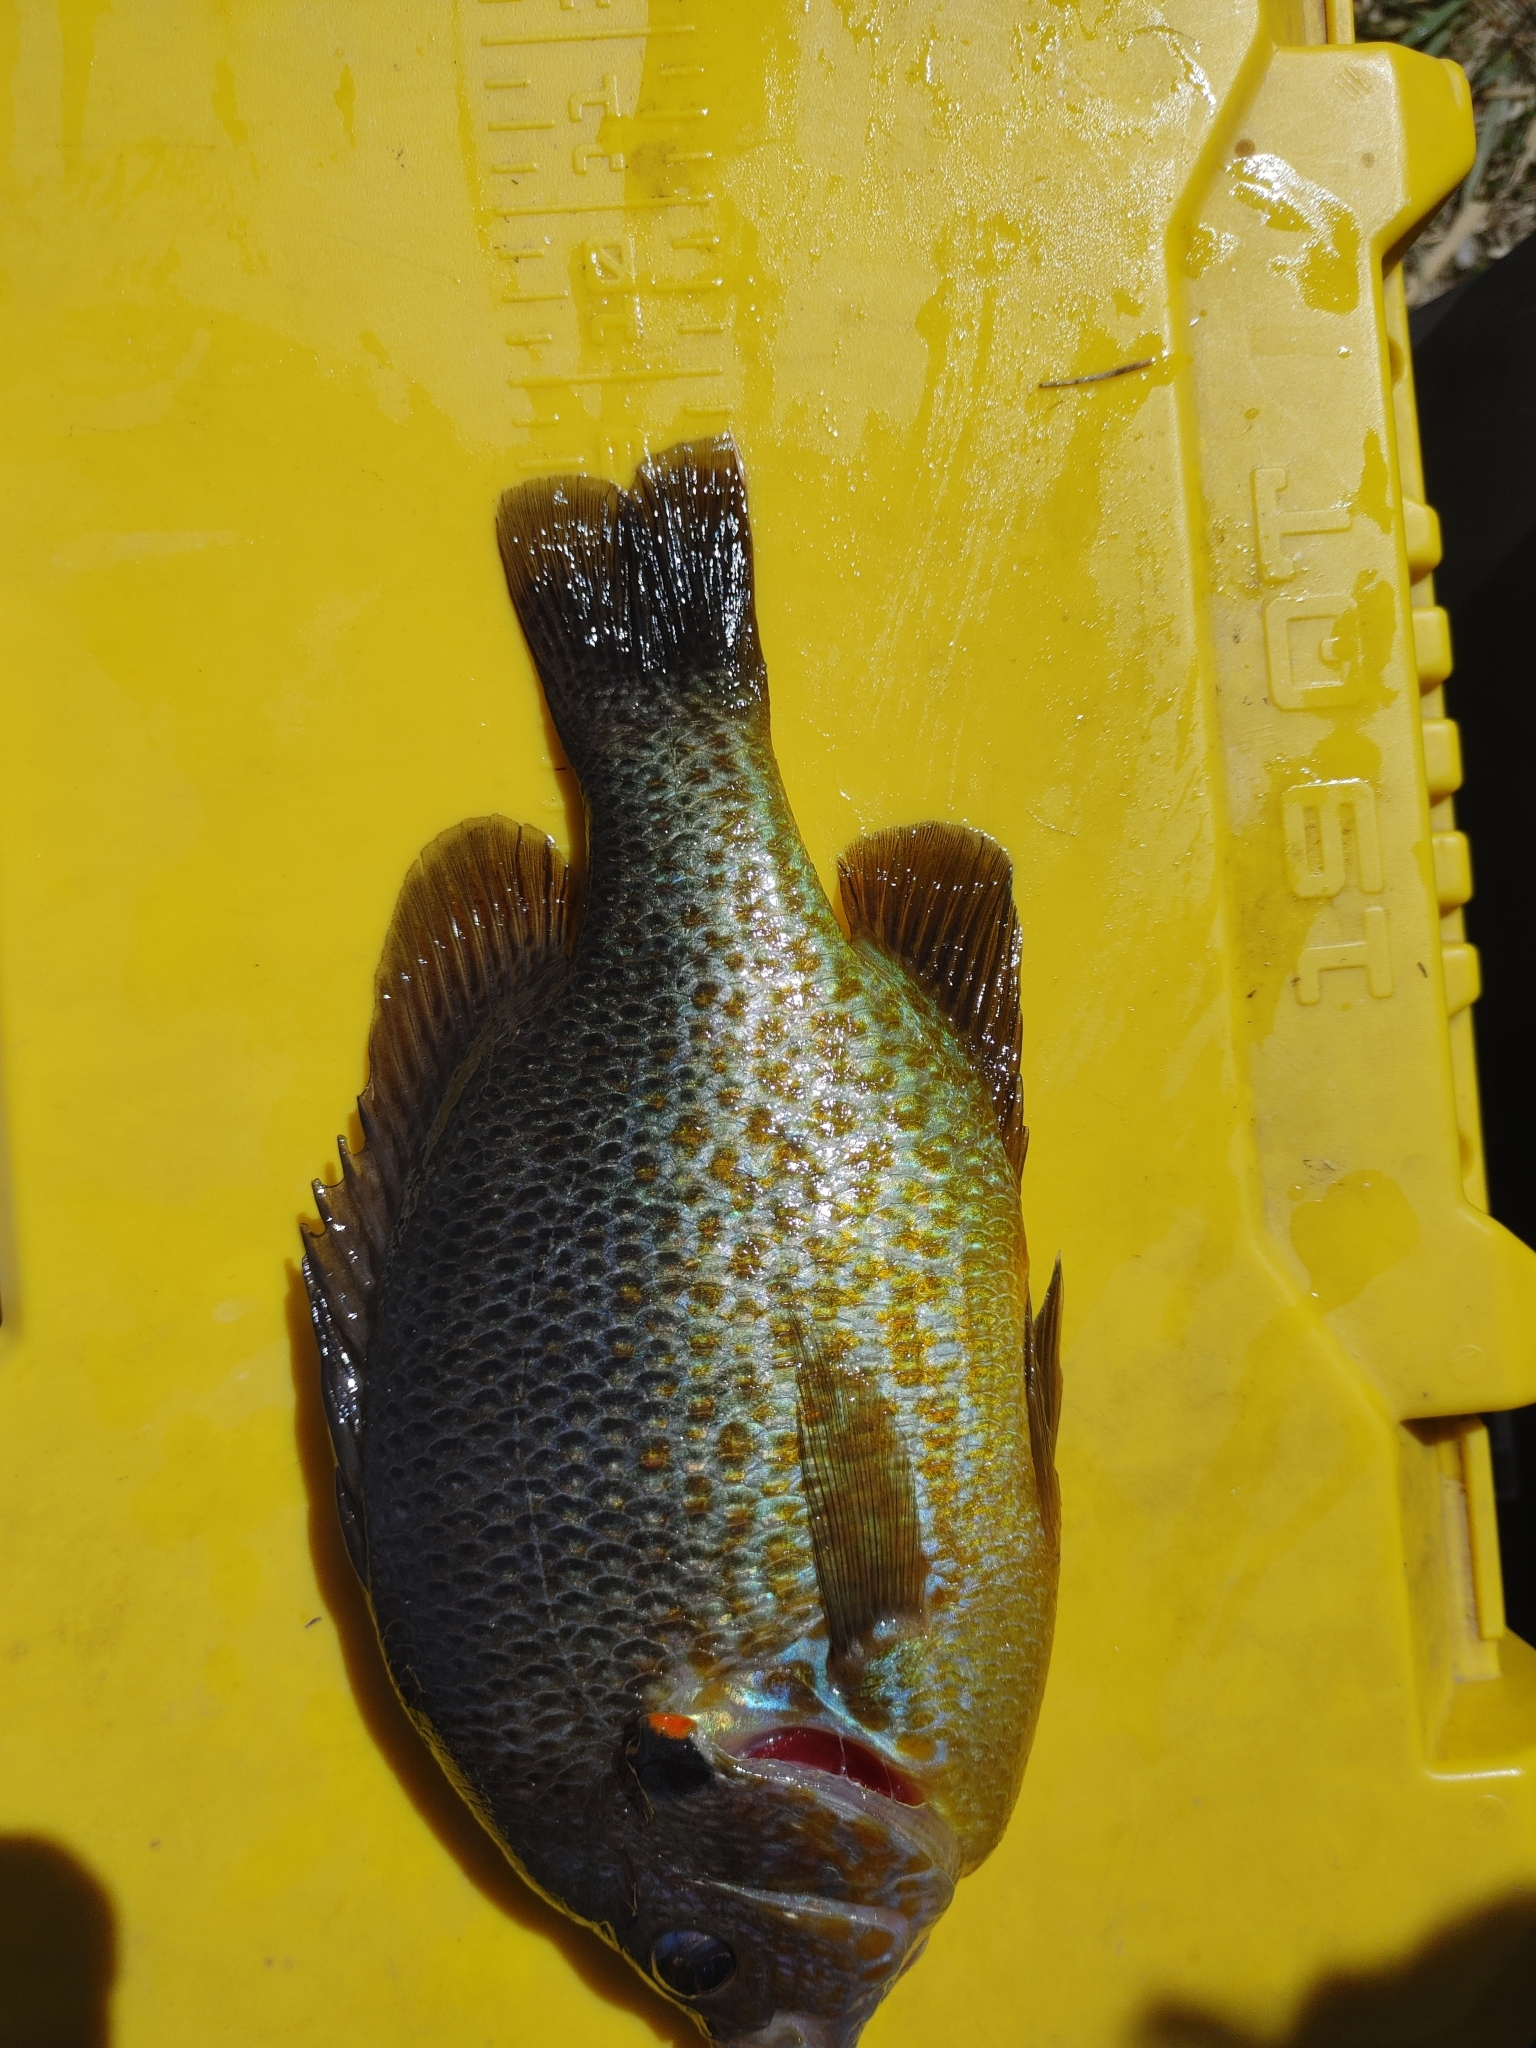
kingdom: Animalia
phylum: Chordata
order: Perciformes
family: Centrarchidae
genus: Lepomis
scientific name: Lepomis gibbosus
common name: Pumpkinseed
